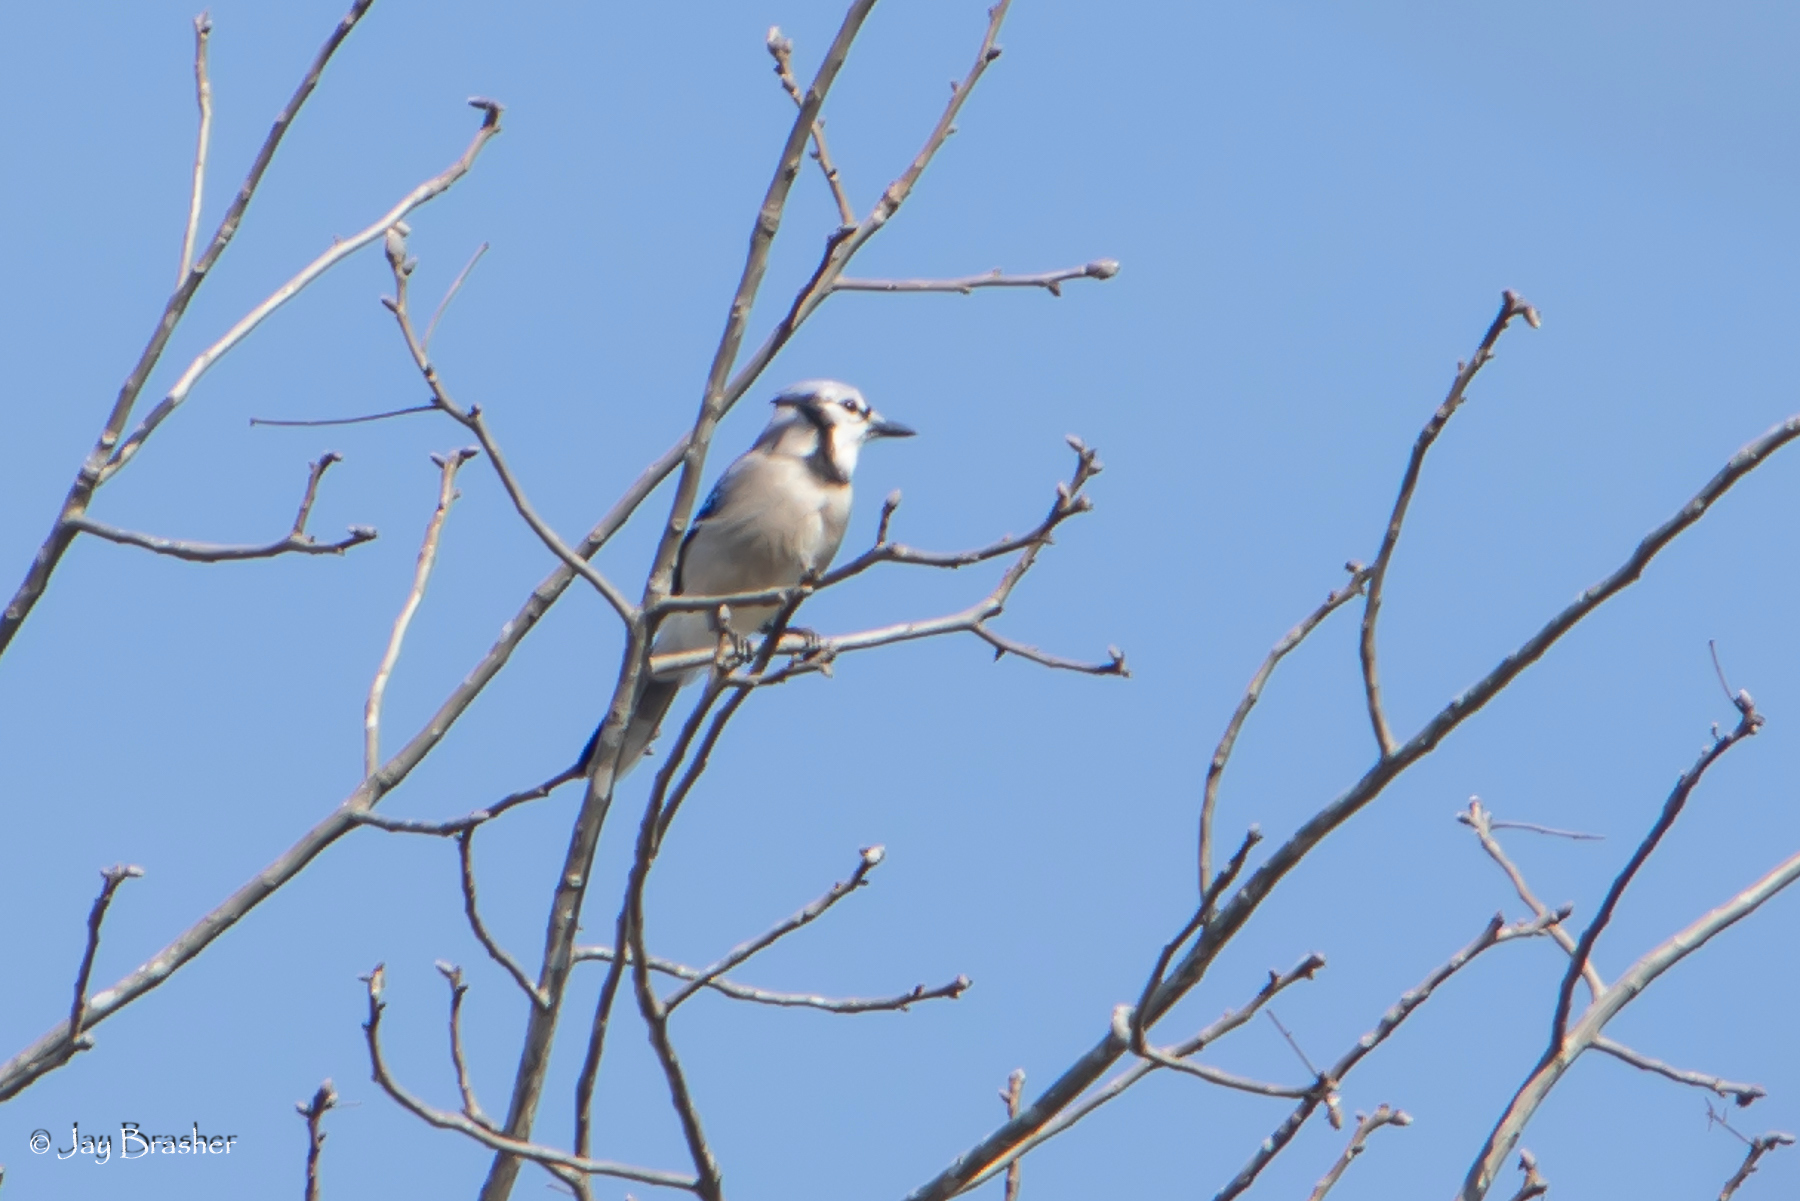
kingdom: Animalia
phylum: Chordata
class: Aves
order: Passeriformes
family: Corvidae
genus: Cyanocitta
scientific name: Cyanocitta cristata
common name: Blue jay
